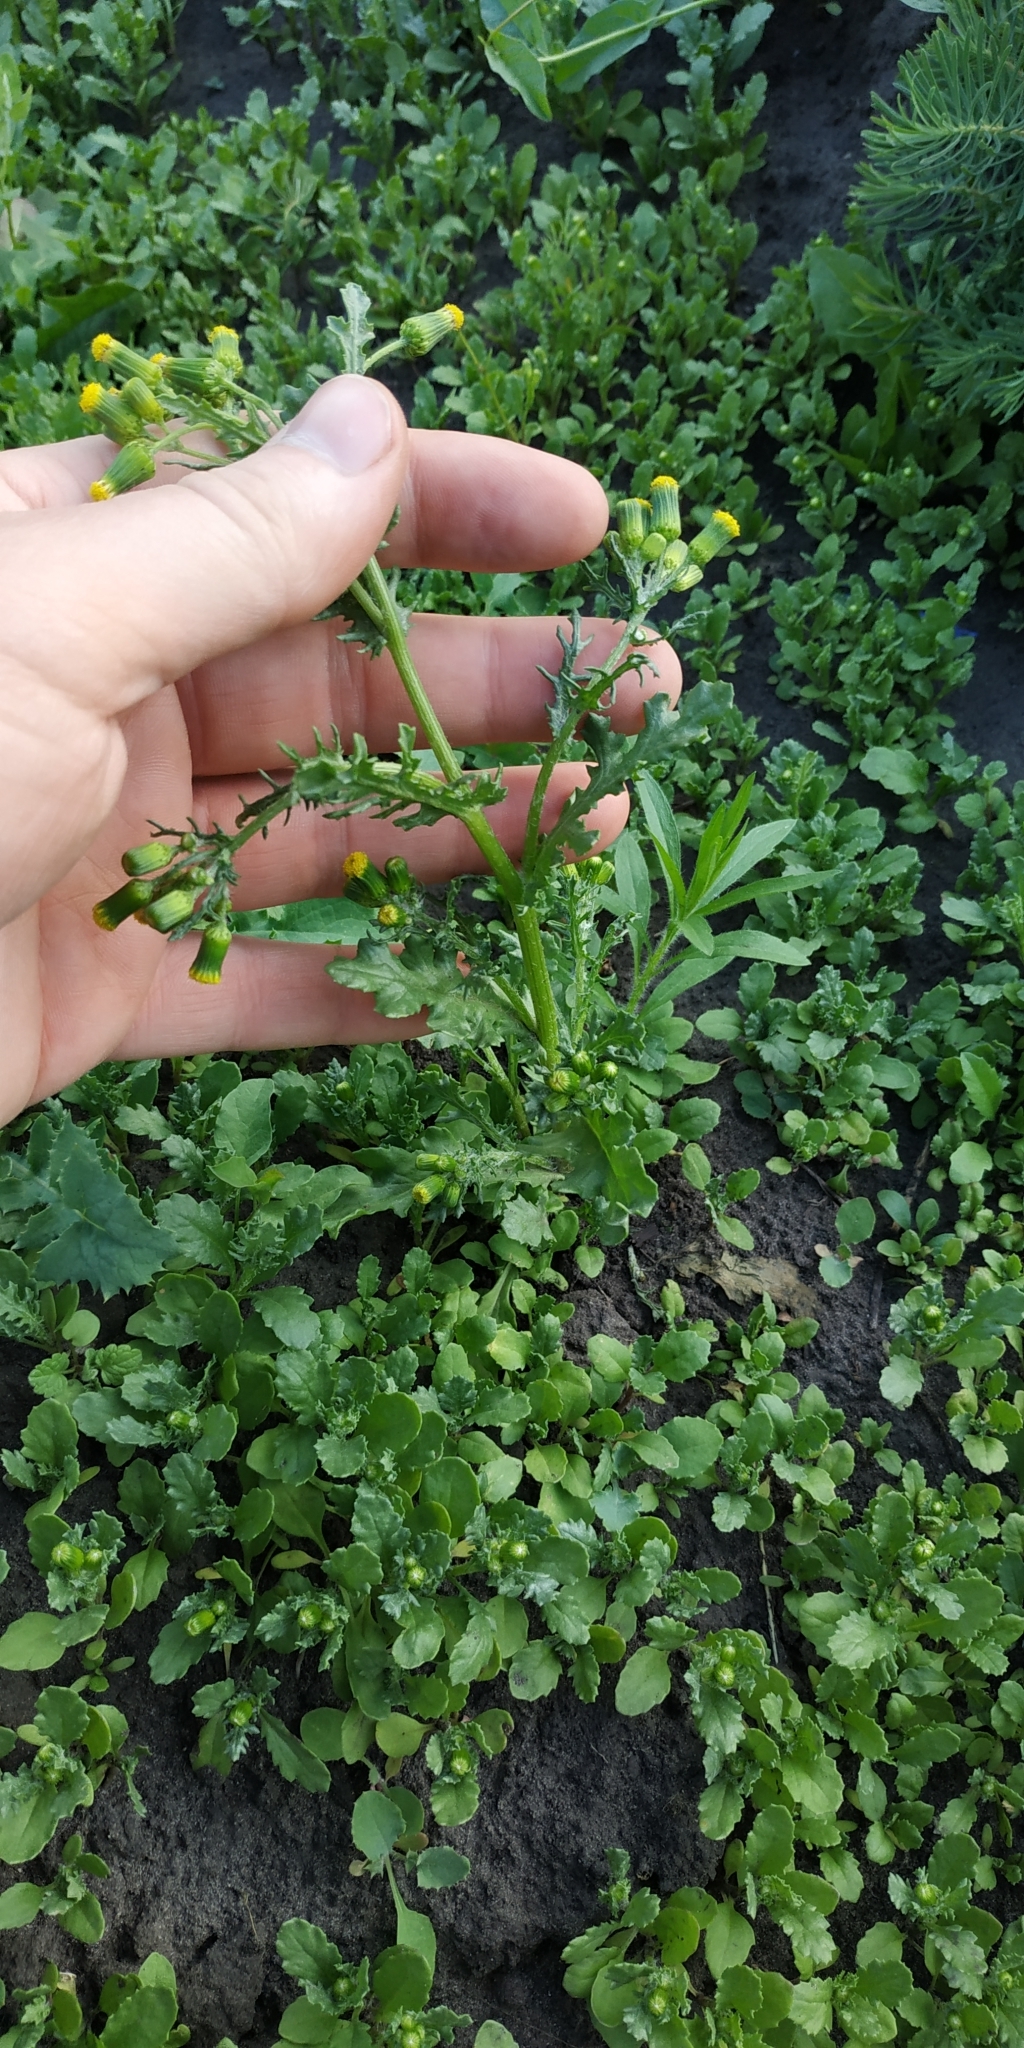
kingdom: Plantae
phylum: Tracheophyta
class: Magnoliopsida
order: Asterales
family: Asteraceae
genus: Senecio
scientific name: Senecio vulgaris
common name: Old-man-in-the-spring
